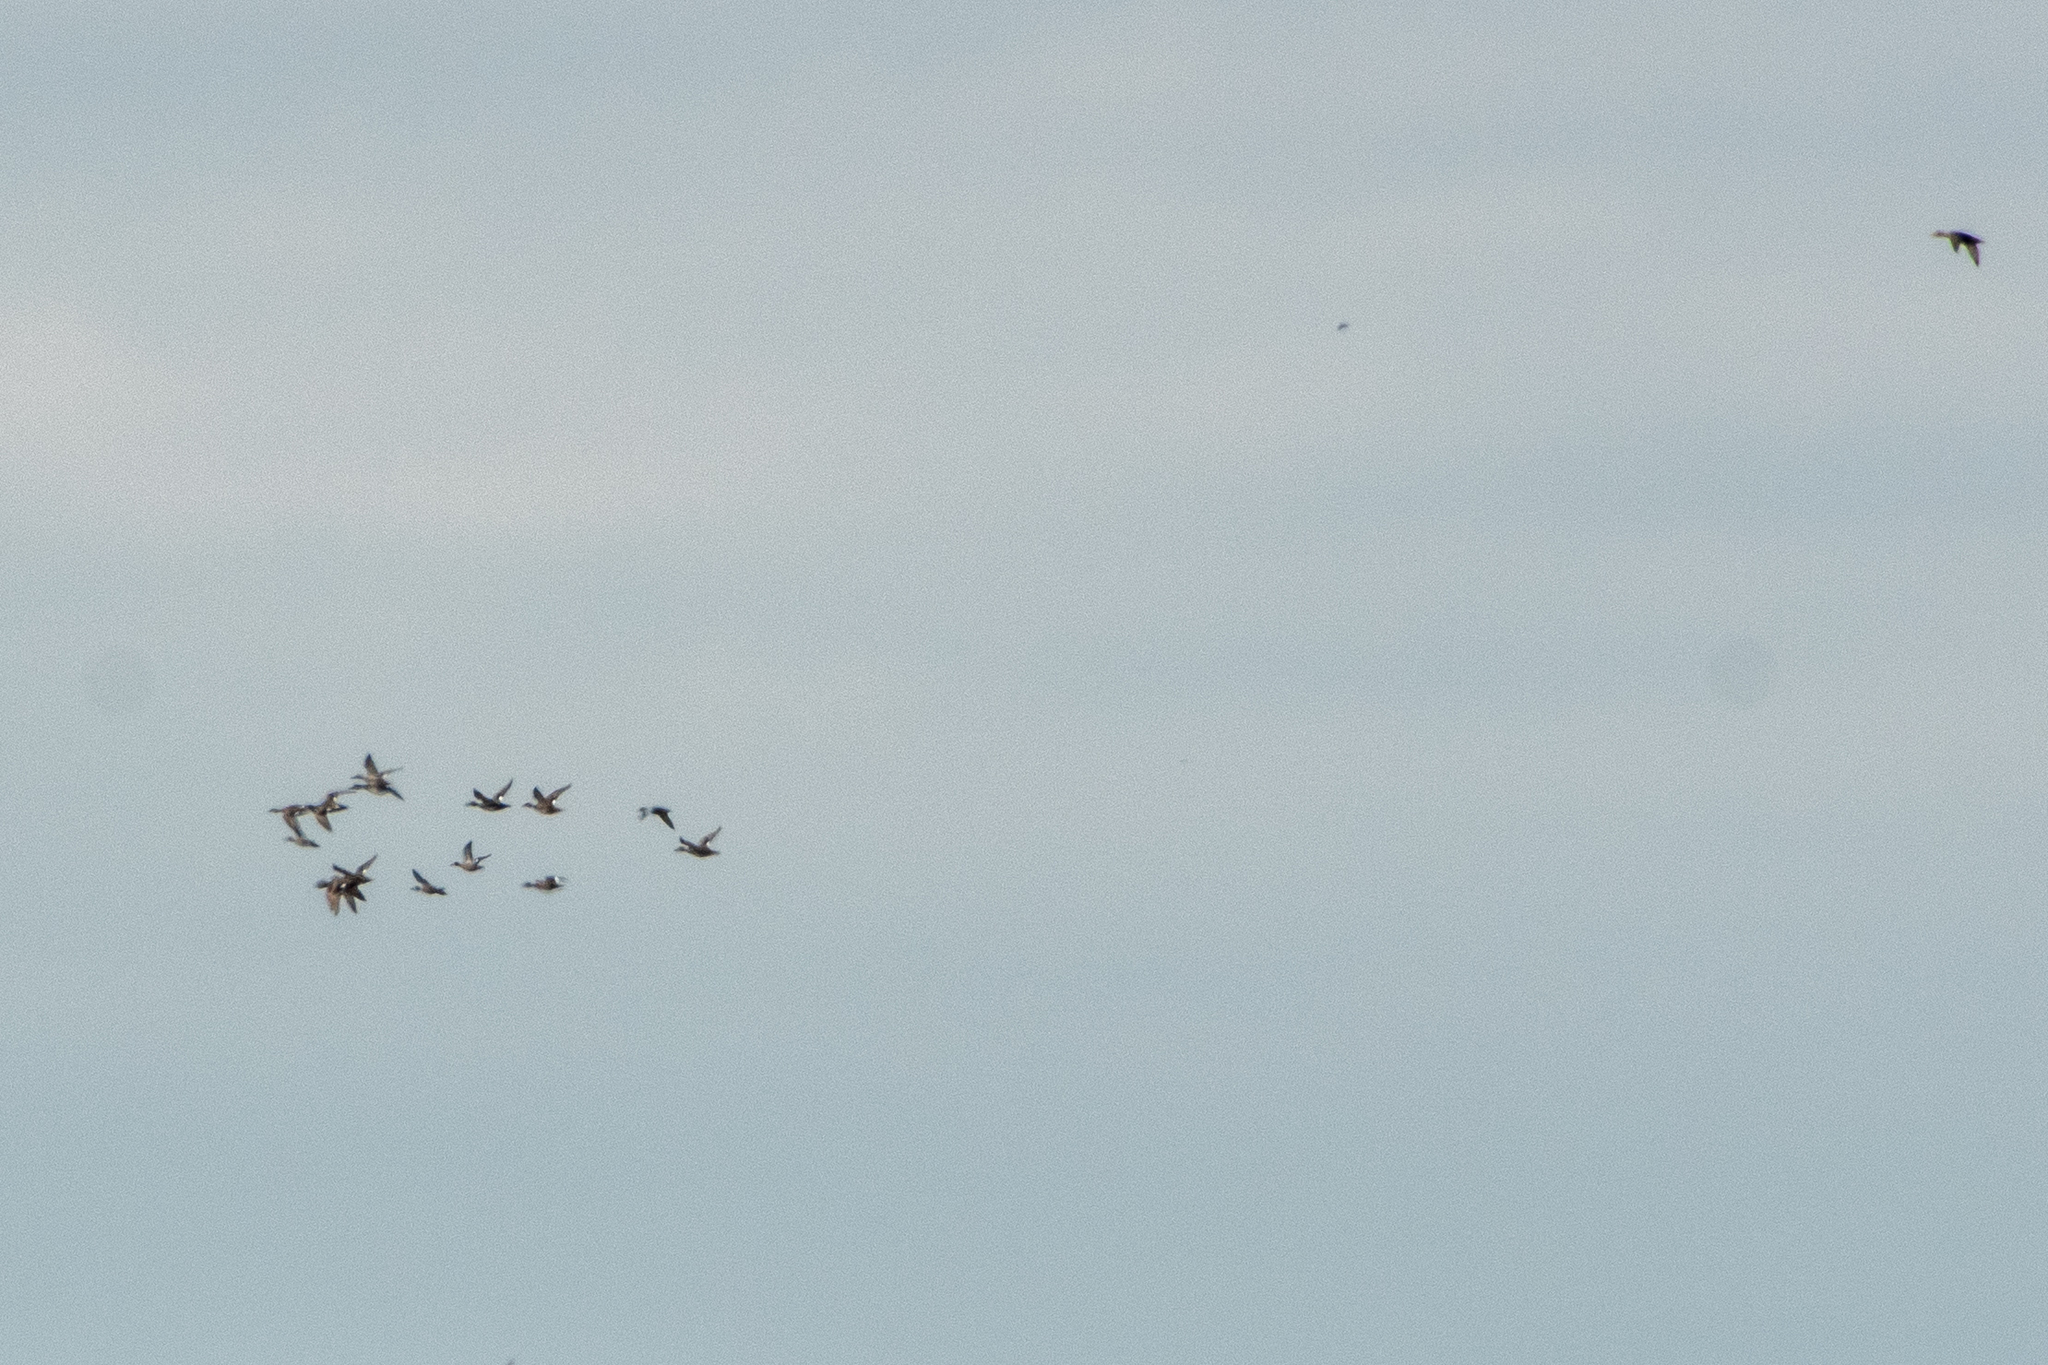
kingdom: Animalia
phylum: Chordata
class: Aves
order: Anseriformes
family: Anatidae
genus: Mareca
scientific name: Mareca strepera
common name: Gadwall
